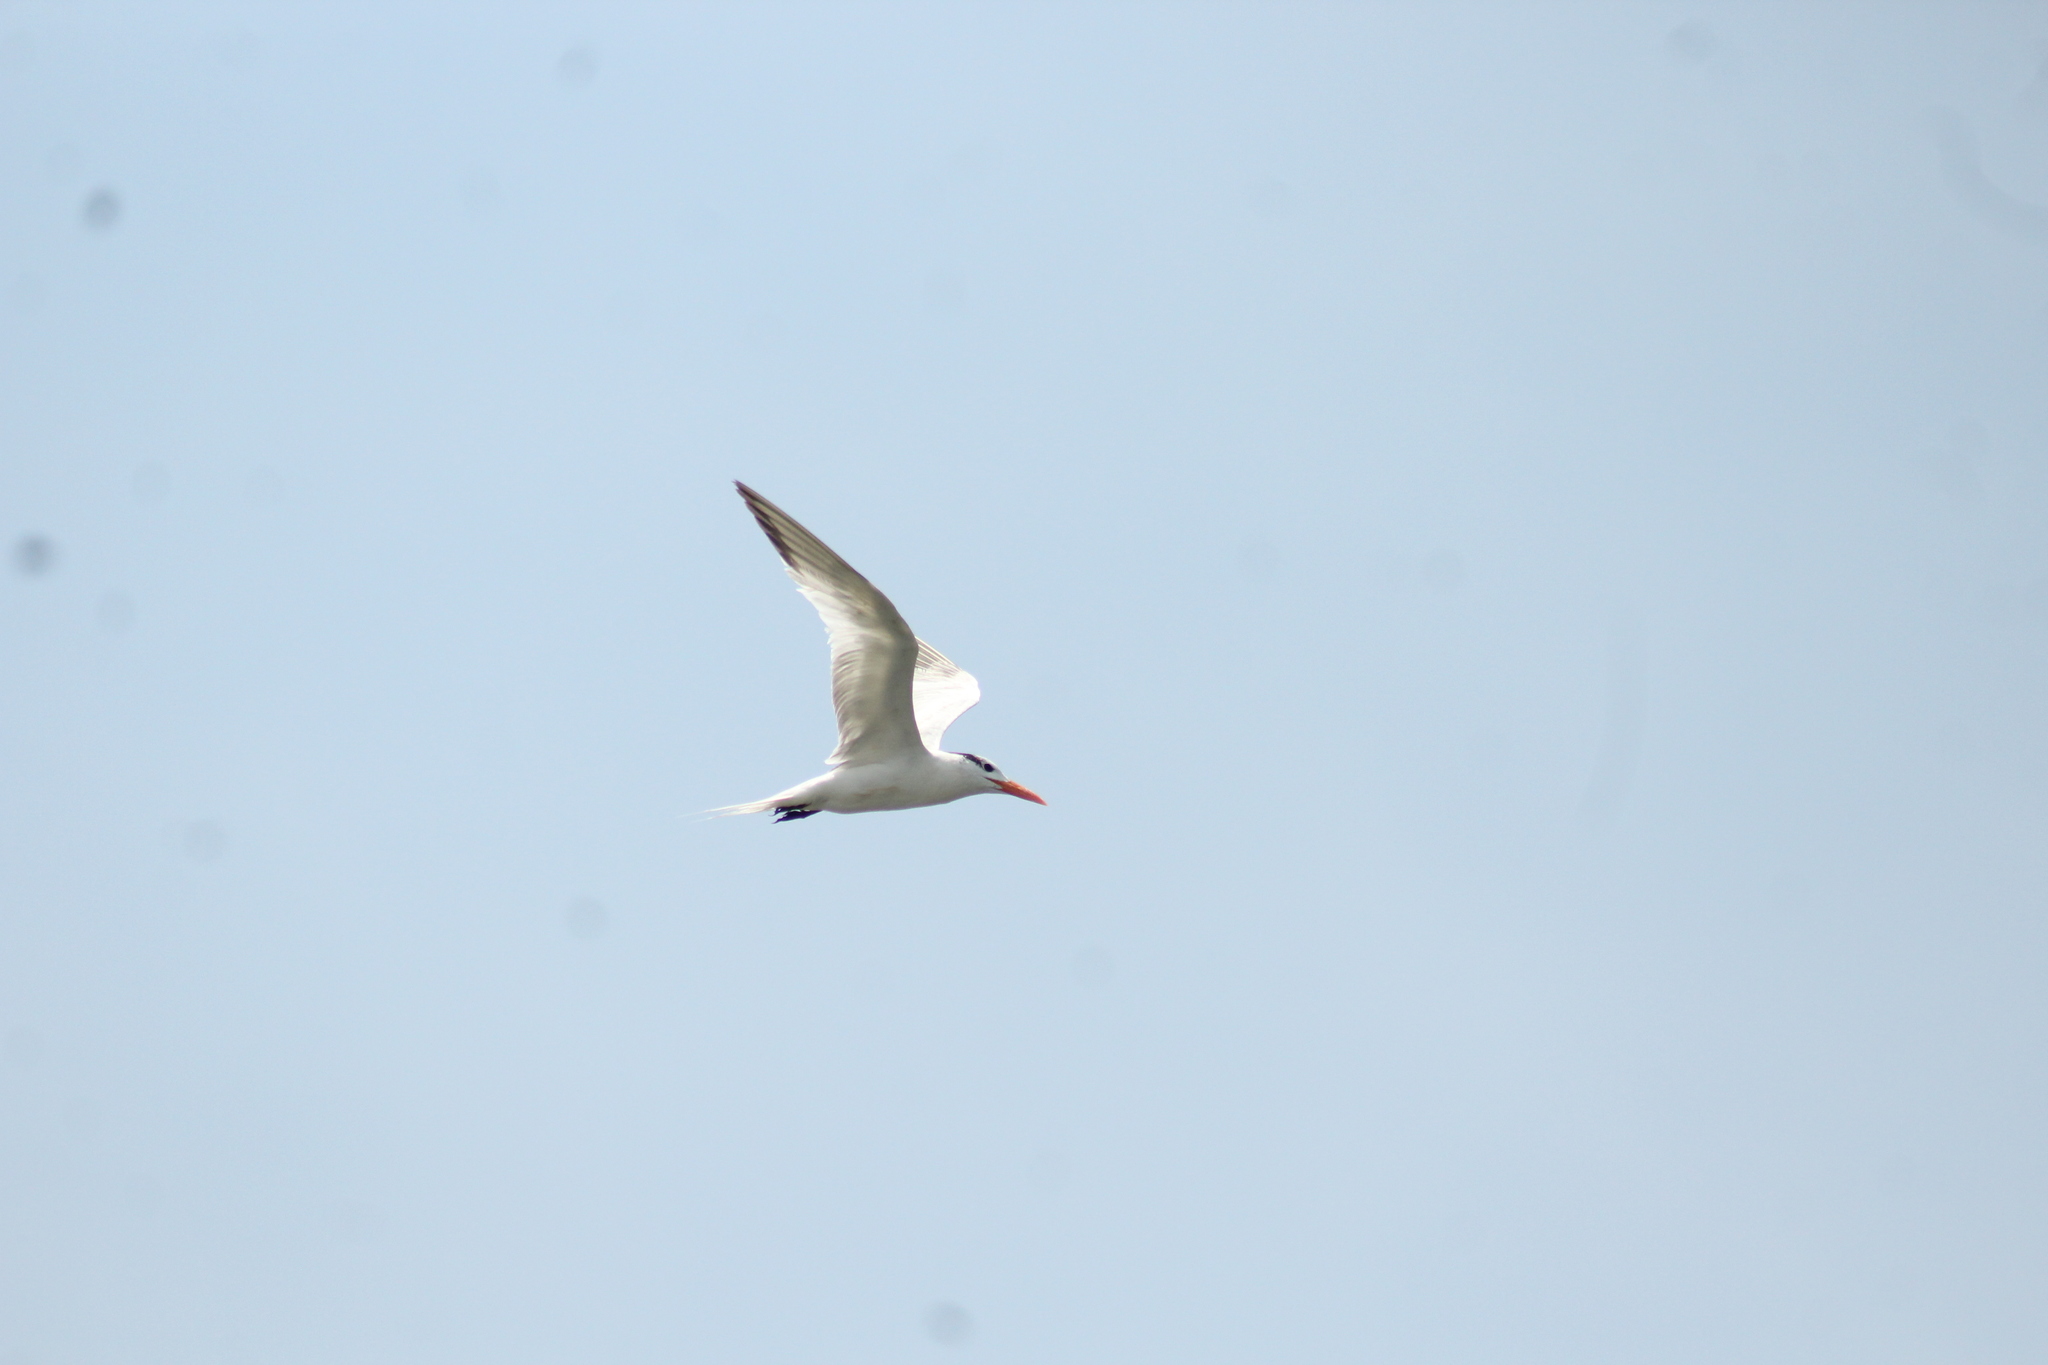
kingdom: Animalia
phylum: Chordata
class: Aves
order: Charadriiformes
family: Laridae
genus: Thalasseus
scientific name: Thalasseus maximus
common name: Royal tern
